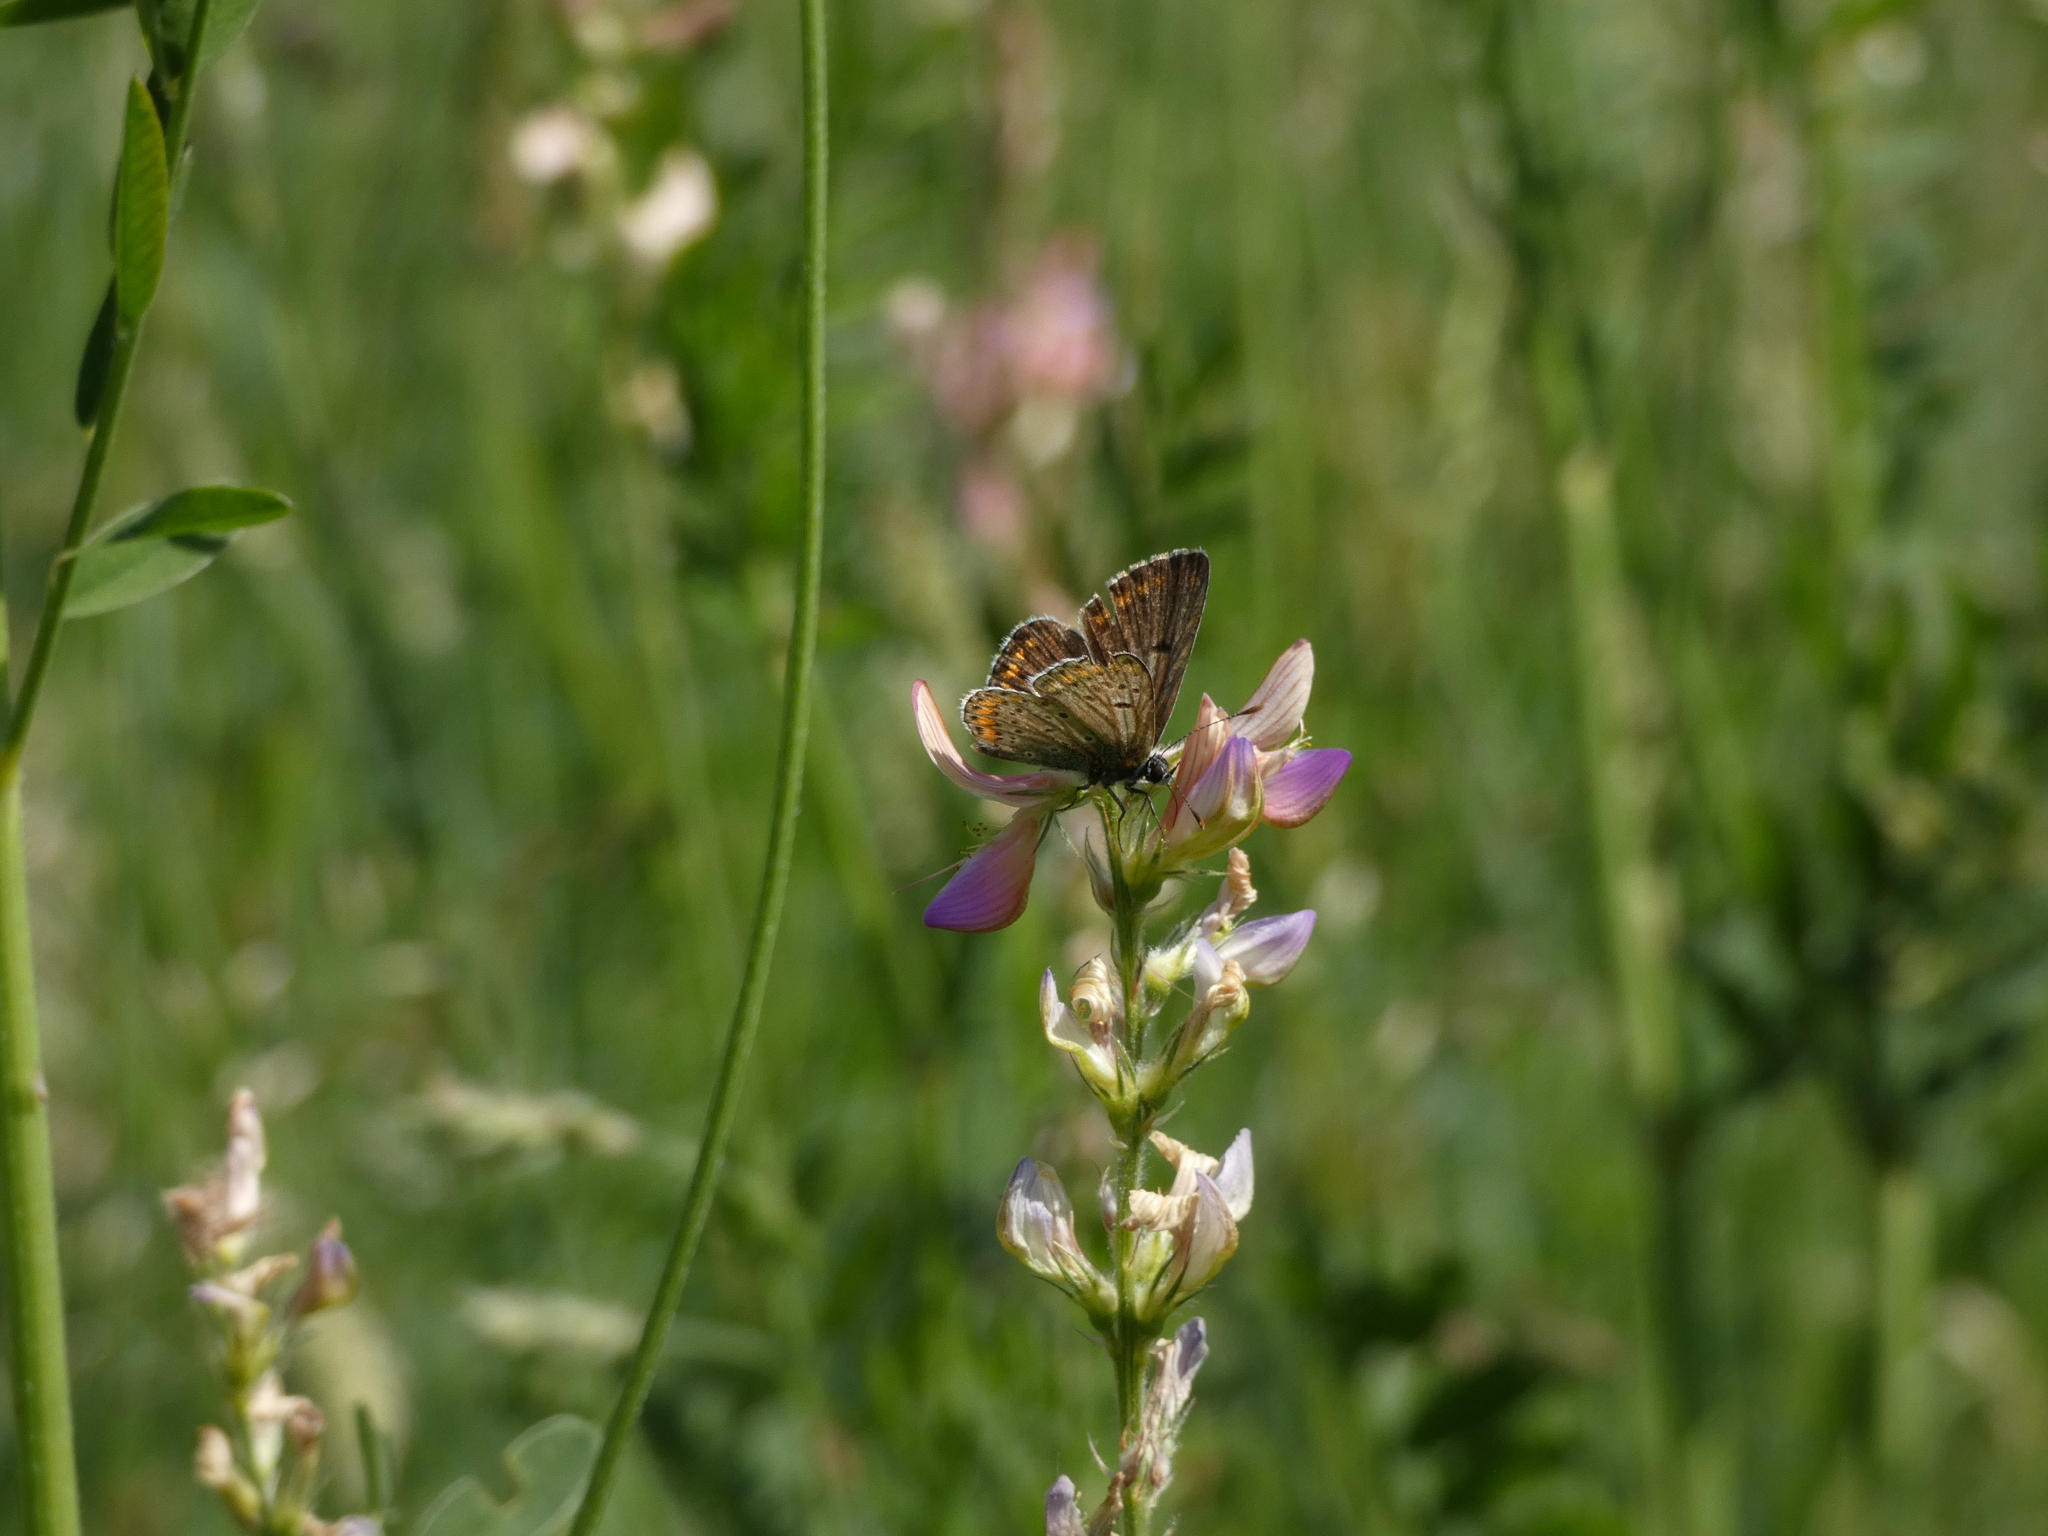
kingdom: Animalia
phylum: Arthropoda
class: Insecta
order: Lepidoptera
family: Lycaenidae
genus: Aricia
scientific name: Aricia agestis
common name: Brown argus
